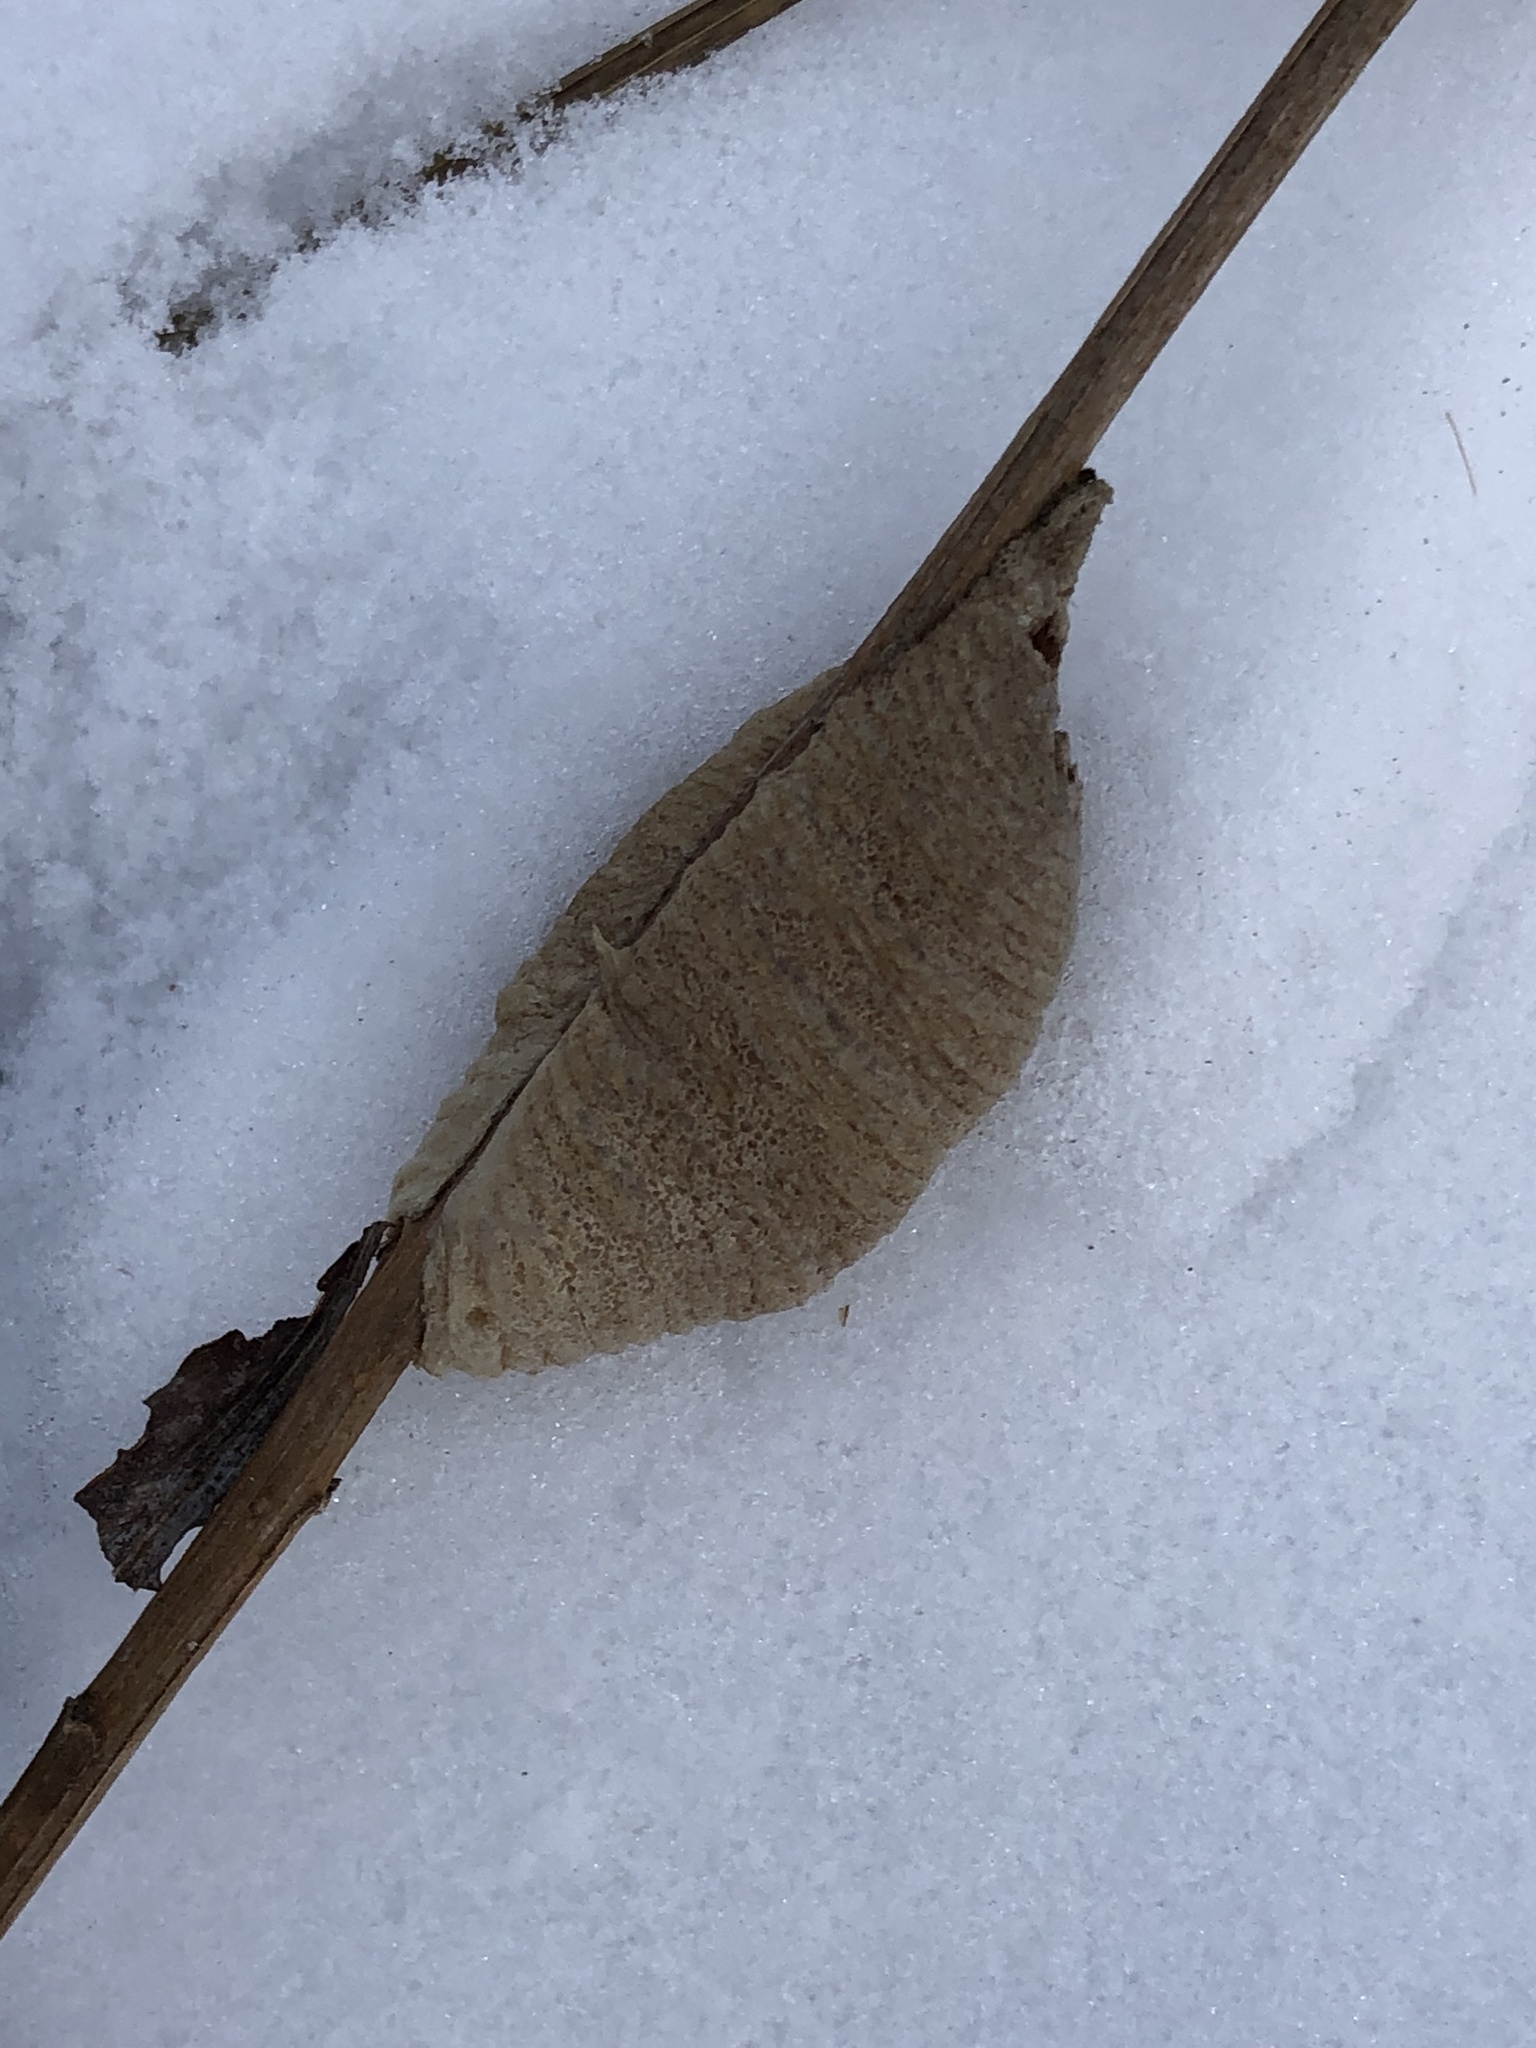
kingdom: Animalia
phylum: Arthropoda
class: Insecta
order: Mantodea
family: Mantidae
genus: Mantis
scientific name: Mantis religiosa
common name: Praying mantis
